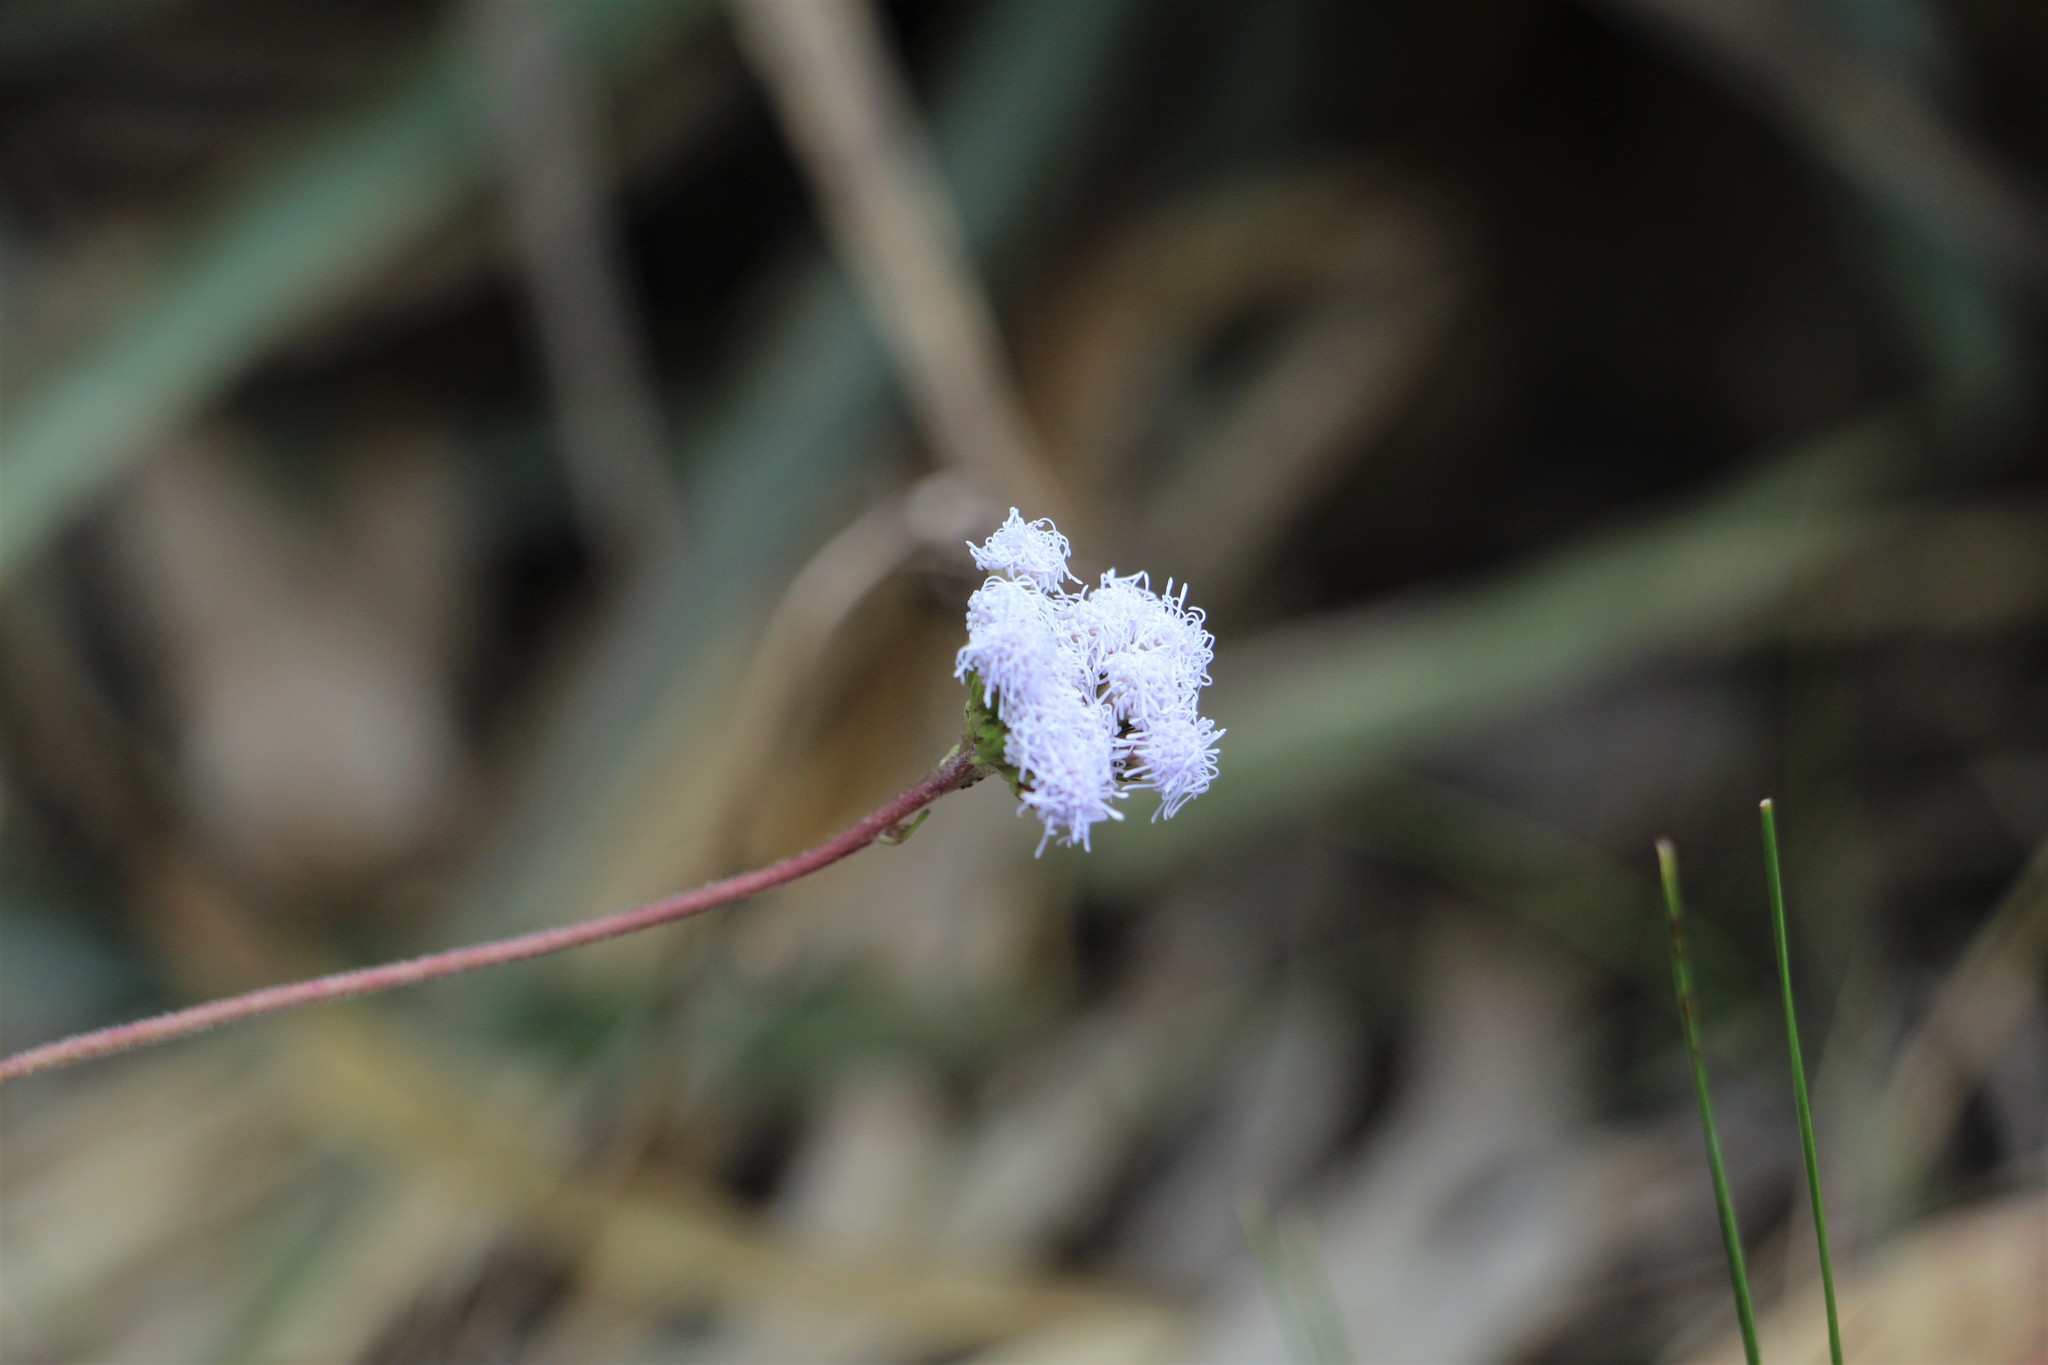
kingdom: Plantae
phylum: Tracheophyta
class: Magnoliopsida
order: Asterales
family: Asteraceae
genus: Lourteigia
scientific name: Lourteigia microphylla
